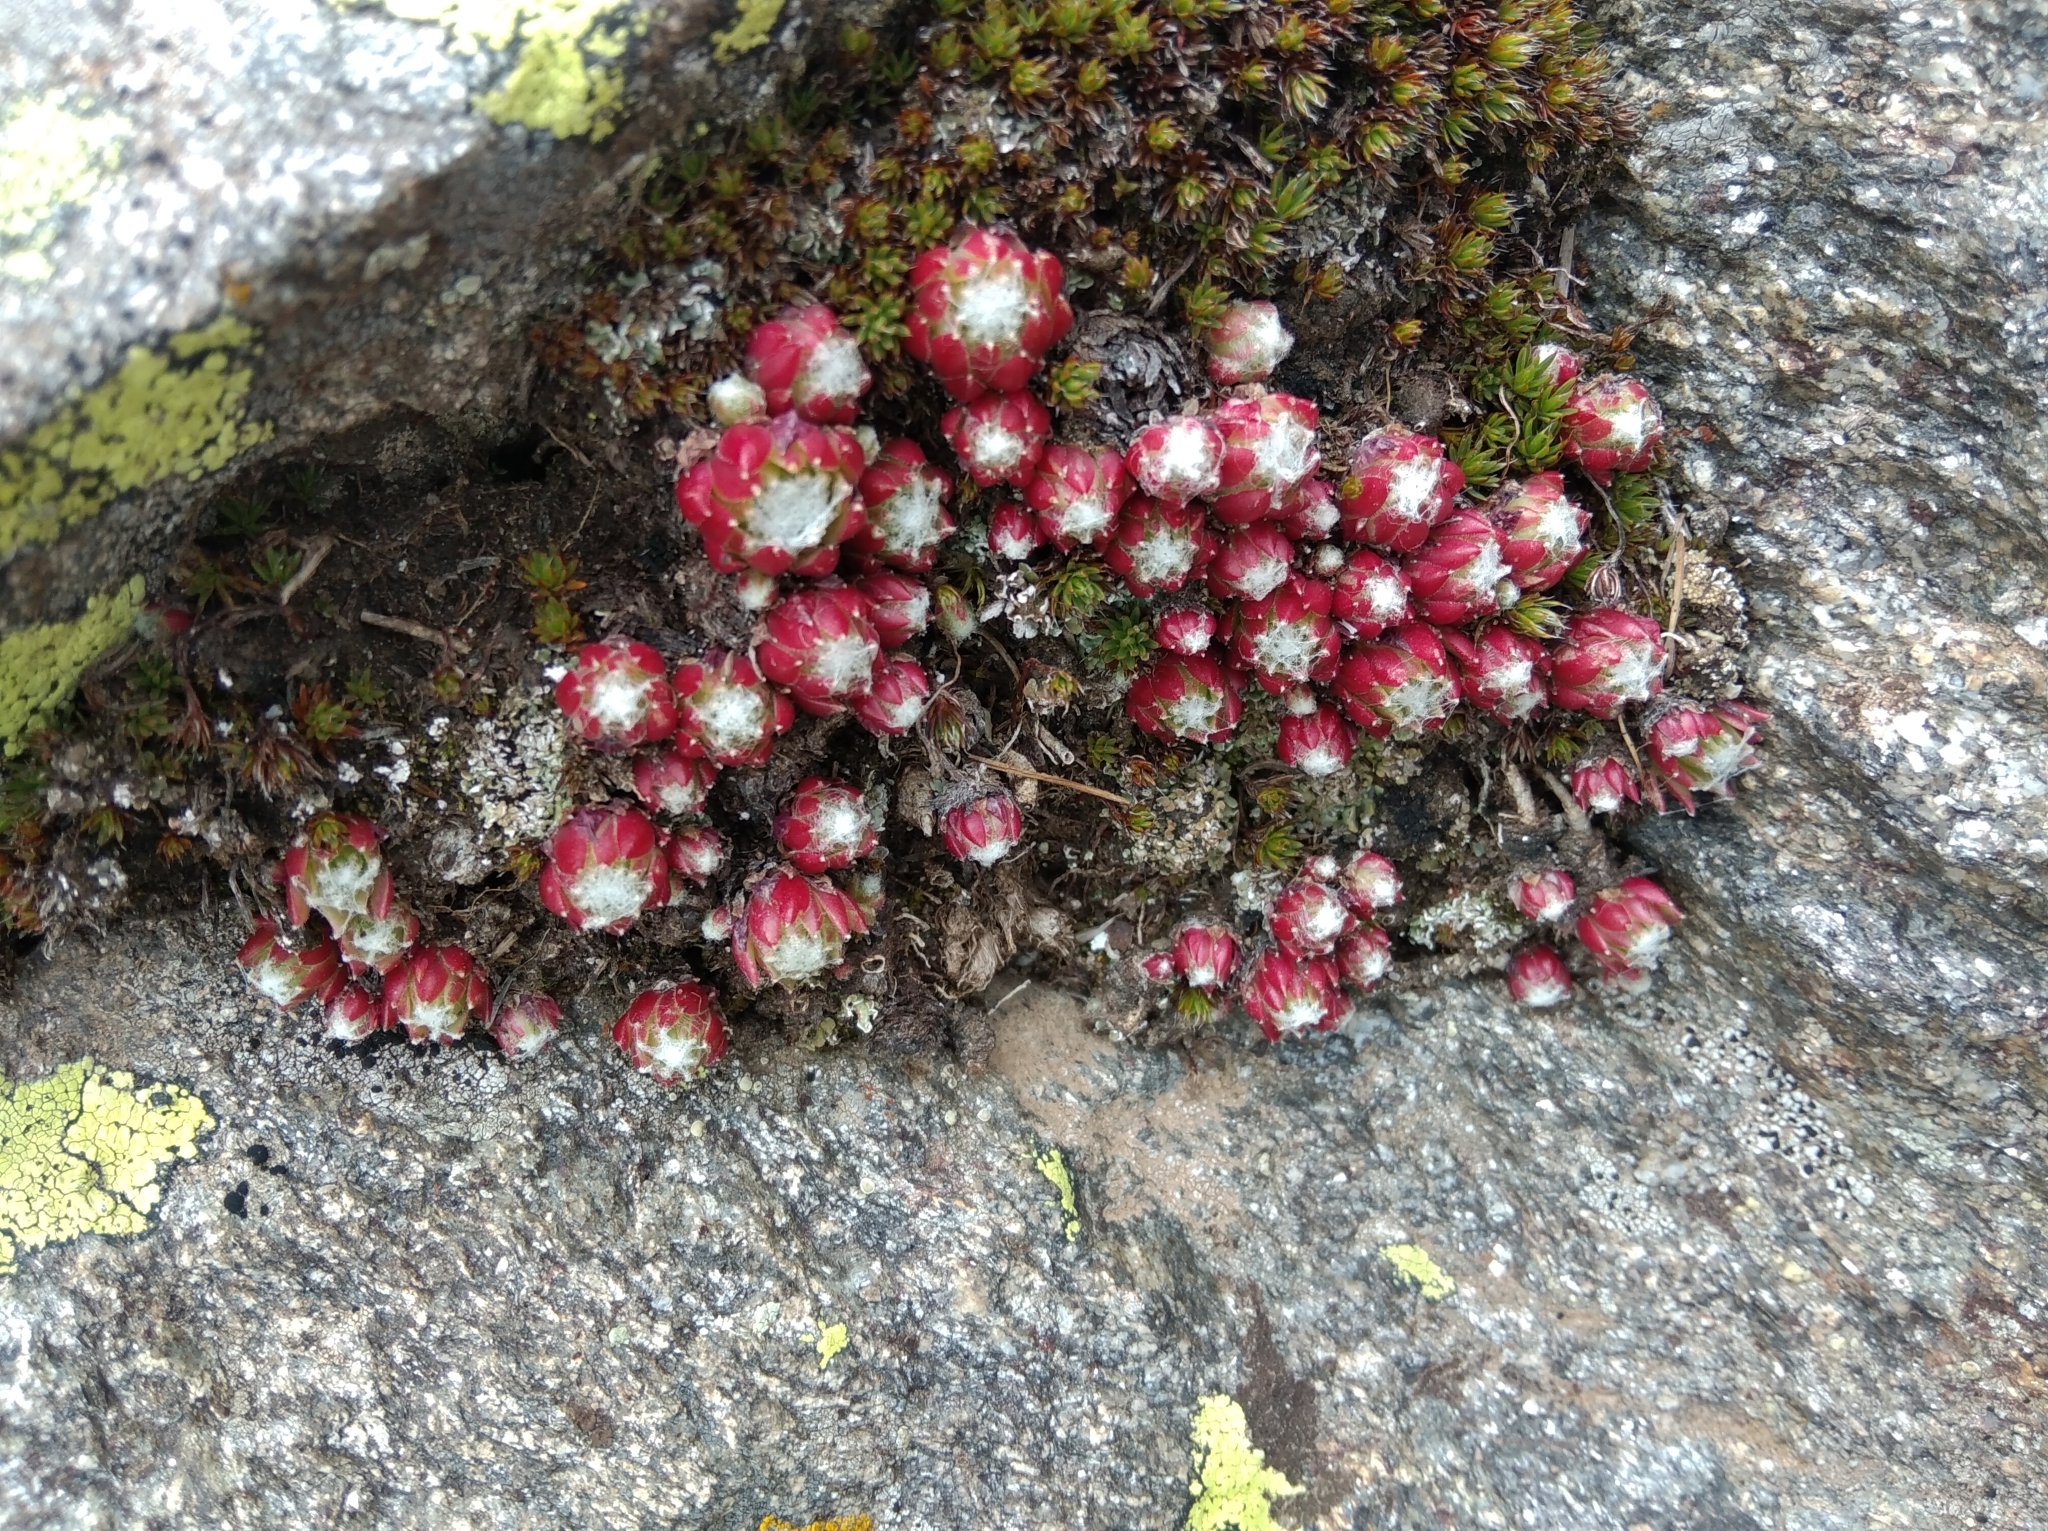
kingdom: Plantae
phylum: Tracheophyta
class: Magnoliopsida
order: Saxifragales
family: Crassulaceae
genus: Sempervivum
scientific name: Sempervivum arachnoideum
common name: Cobweb house-leek
